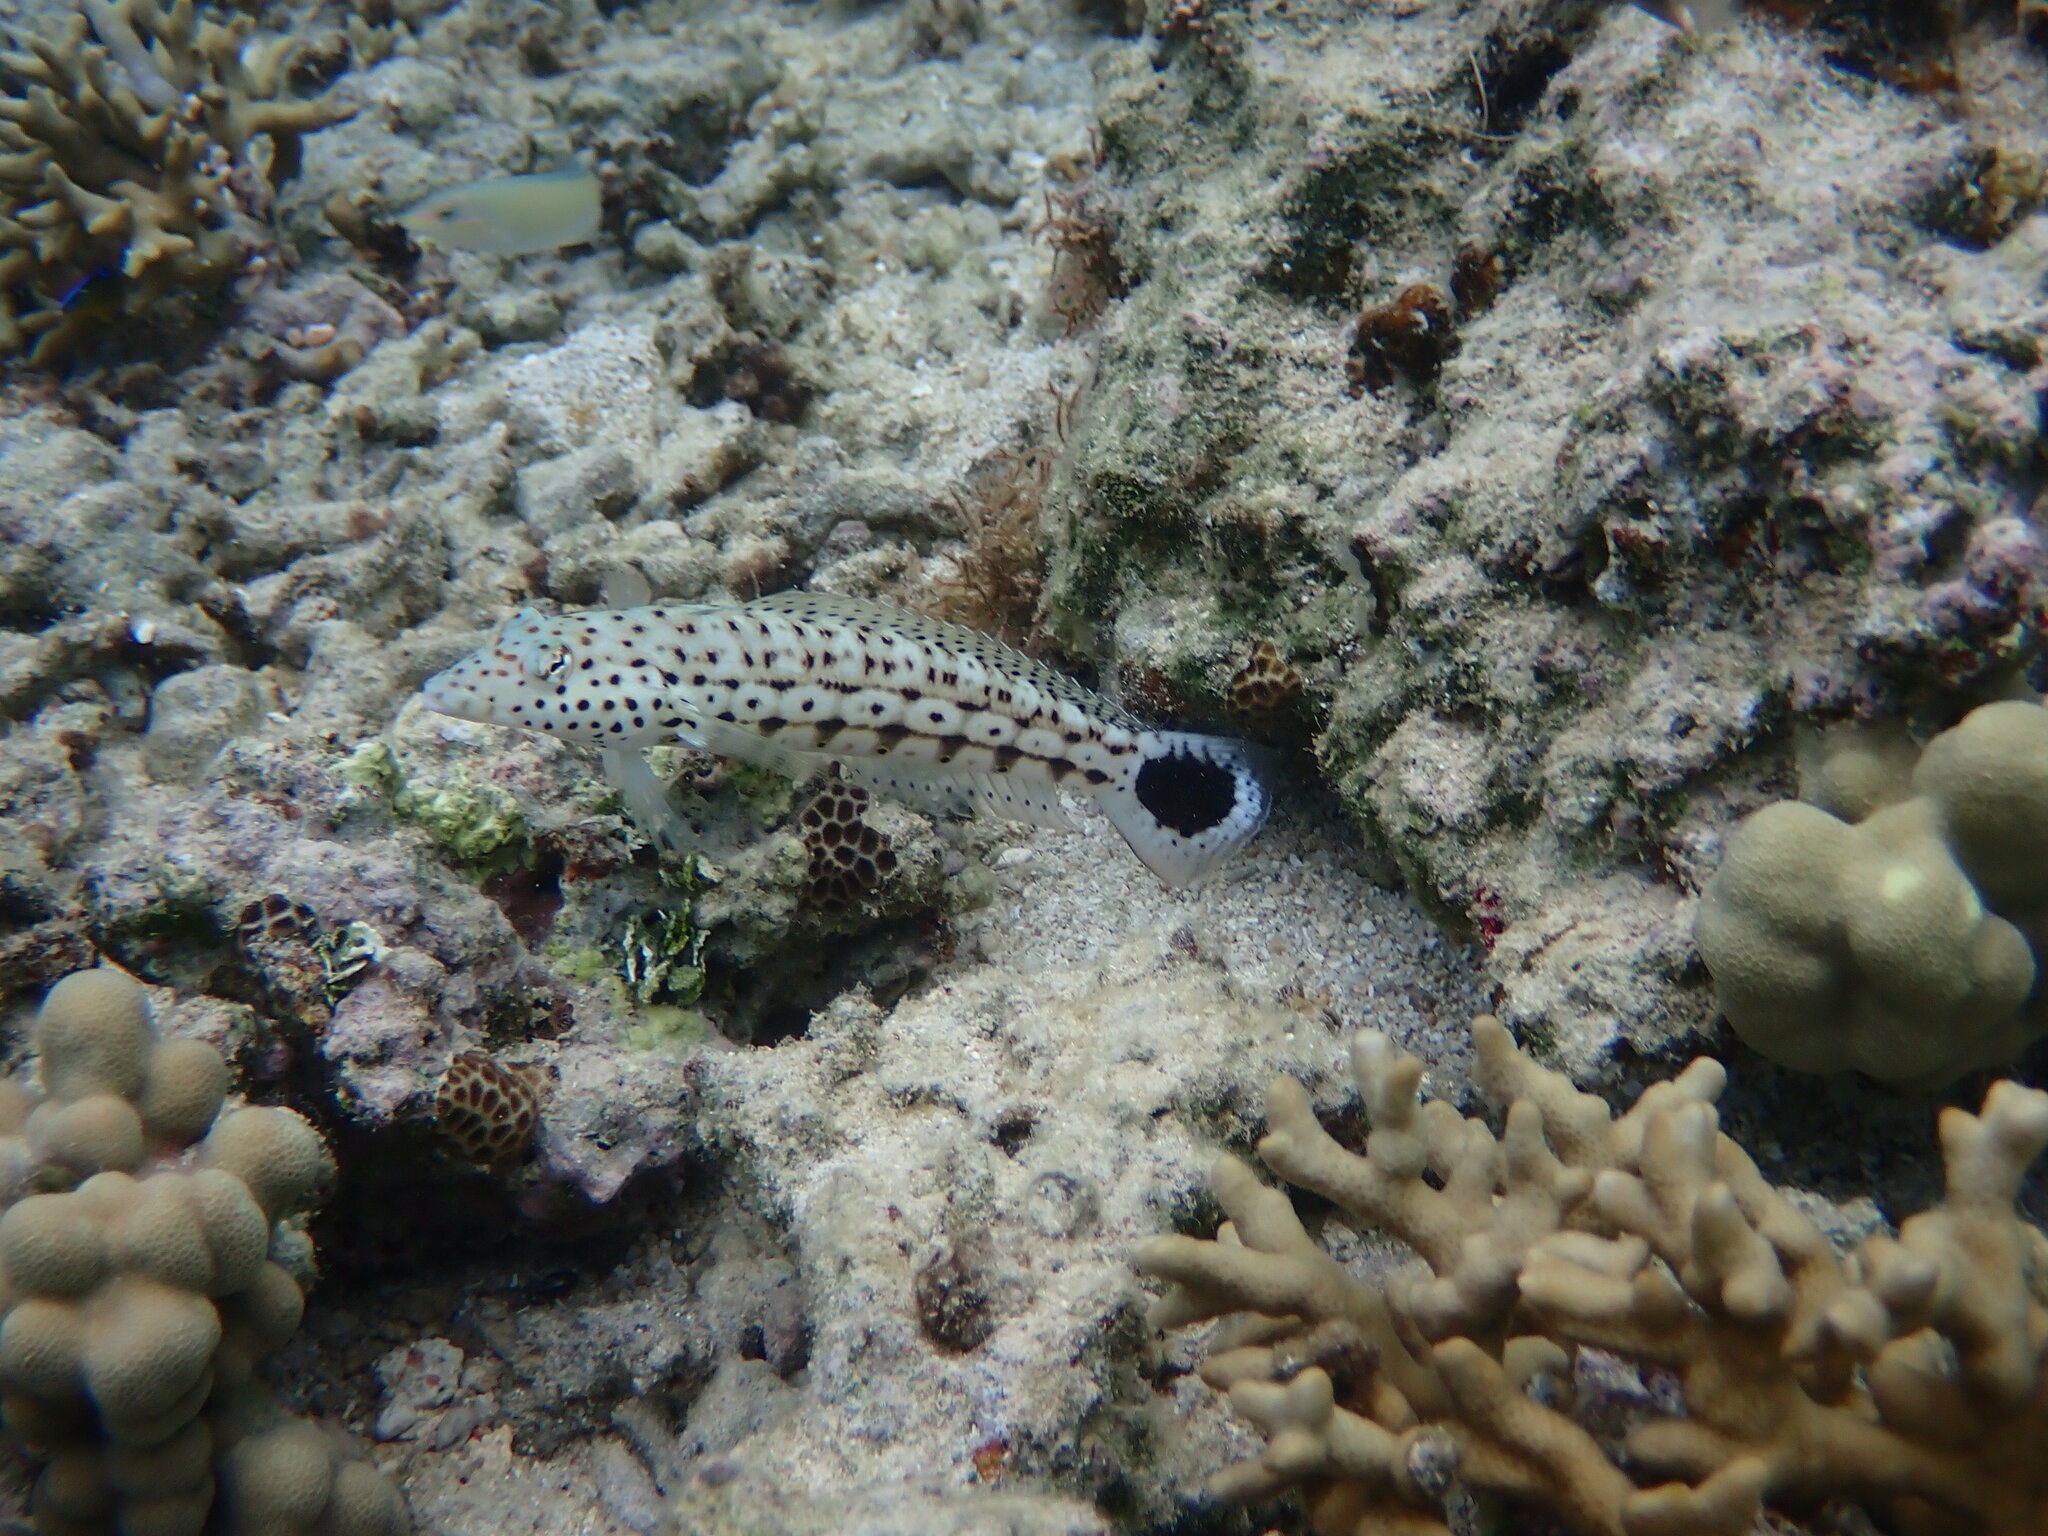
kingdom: Animalia
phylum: Chordata
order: Perciformes
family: Pinguipedidae
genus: Parapercis
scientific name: Parapercis xanthogramma
